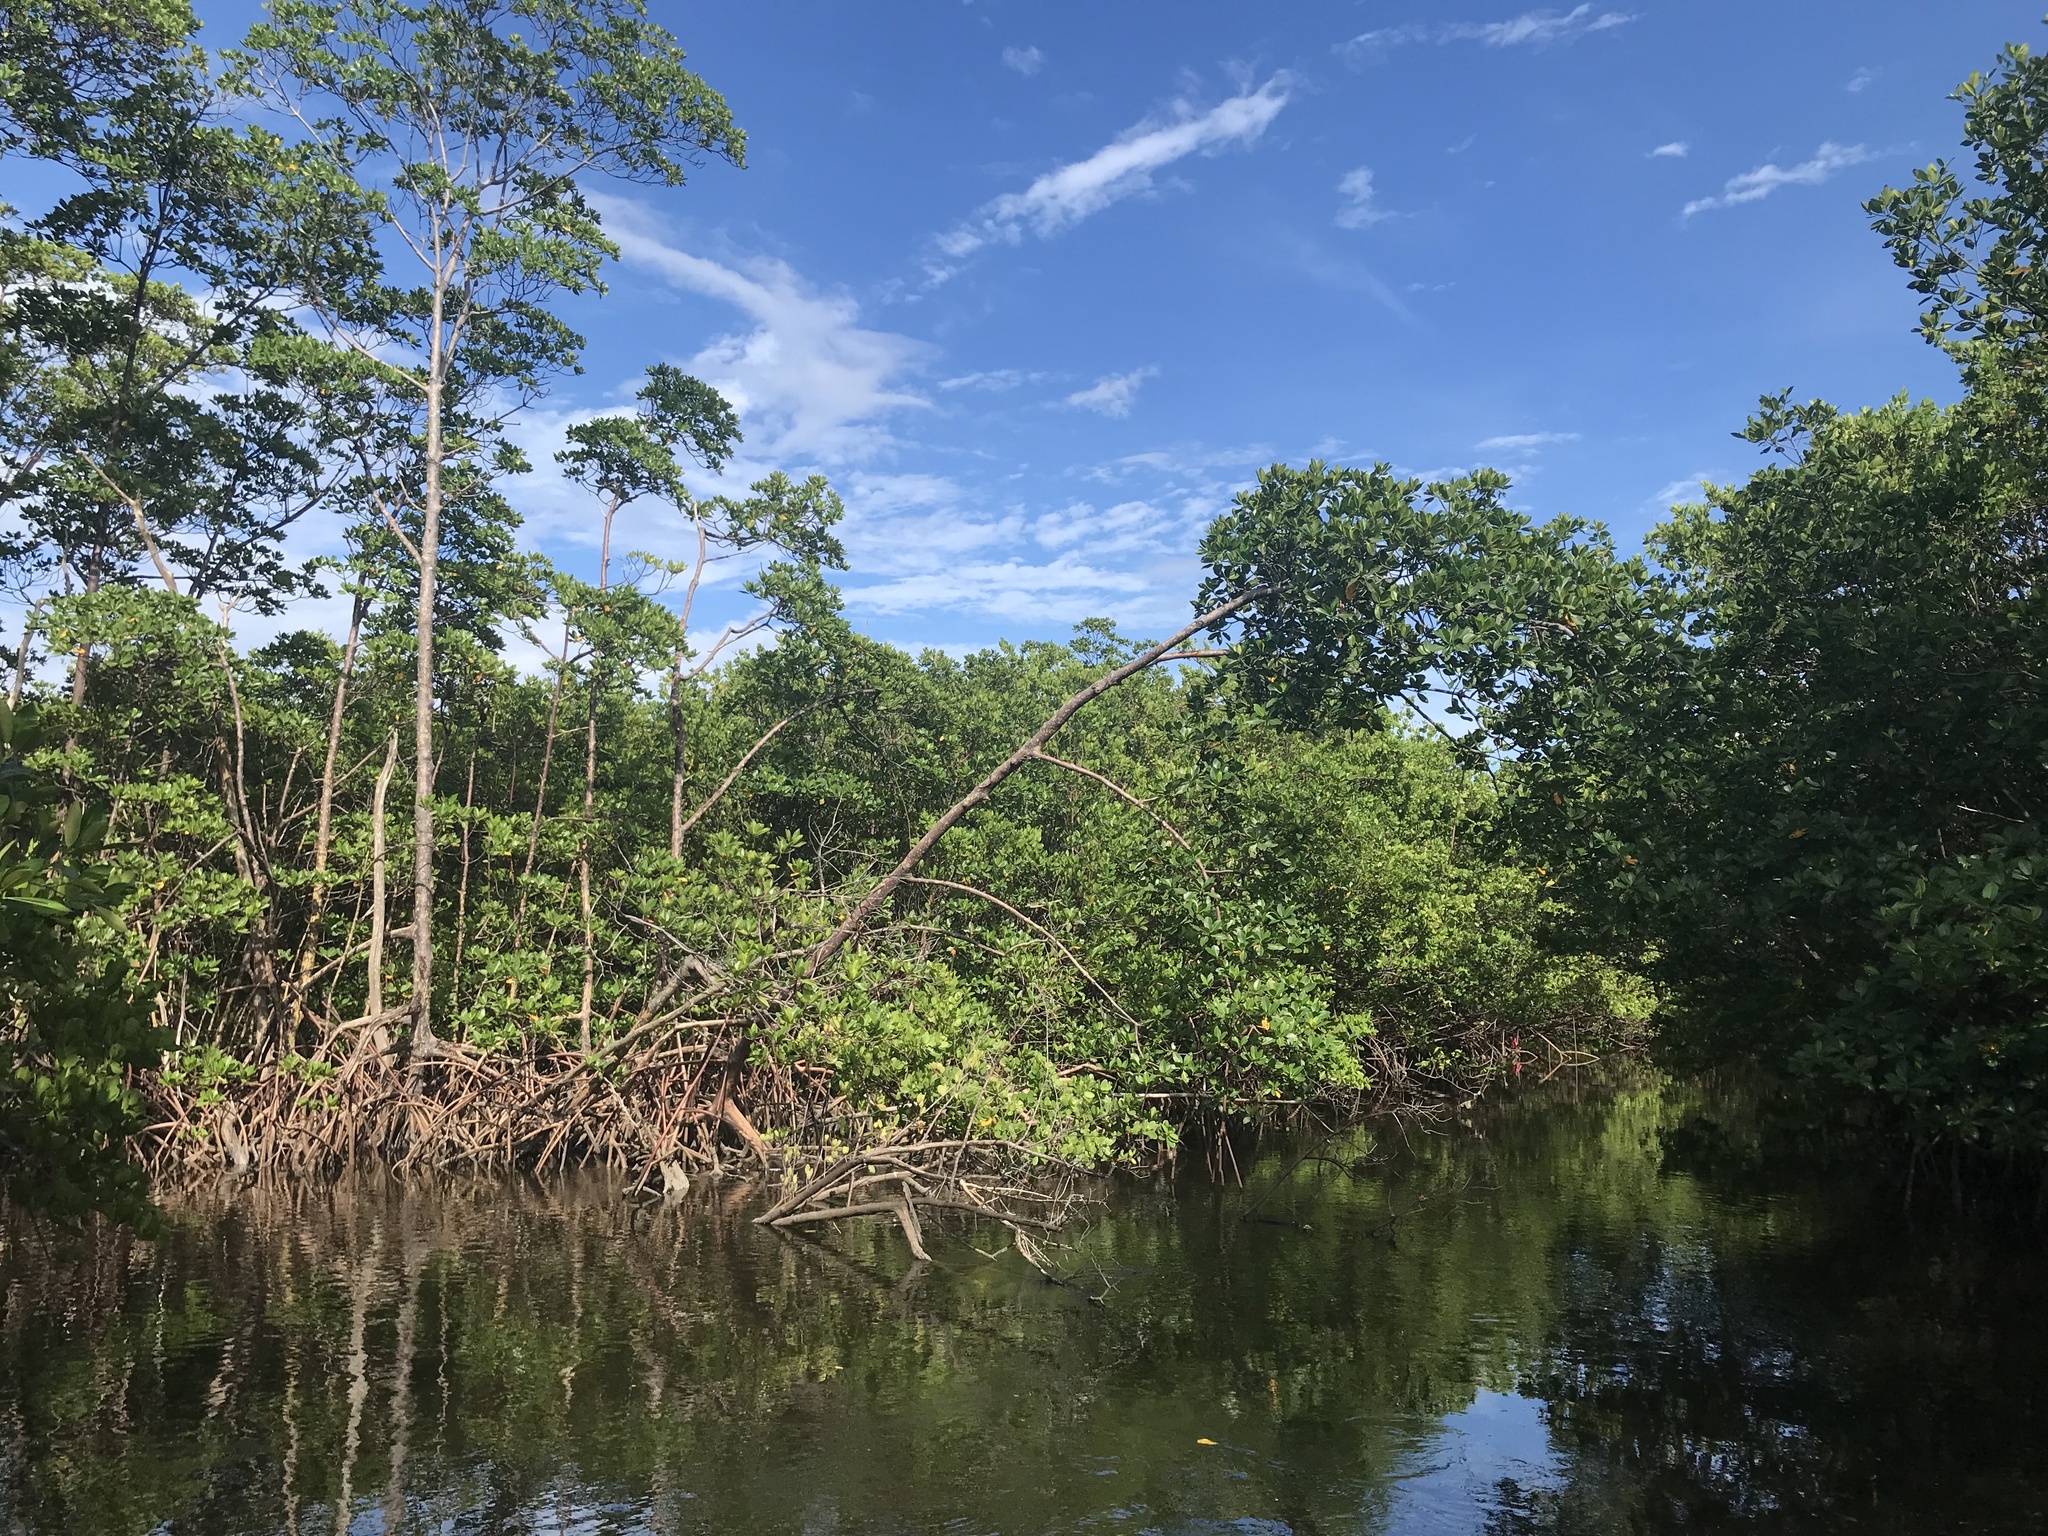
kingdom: Plantae
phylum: Tracheophyta
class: Magnoliopsida
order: Malpighiales
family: Rhizophoraceae
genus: Rhizophora
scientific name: Rhizophora mangle
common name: Red mangrove
